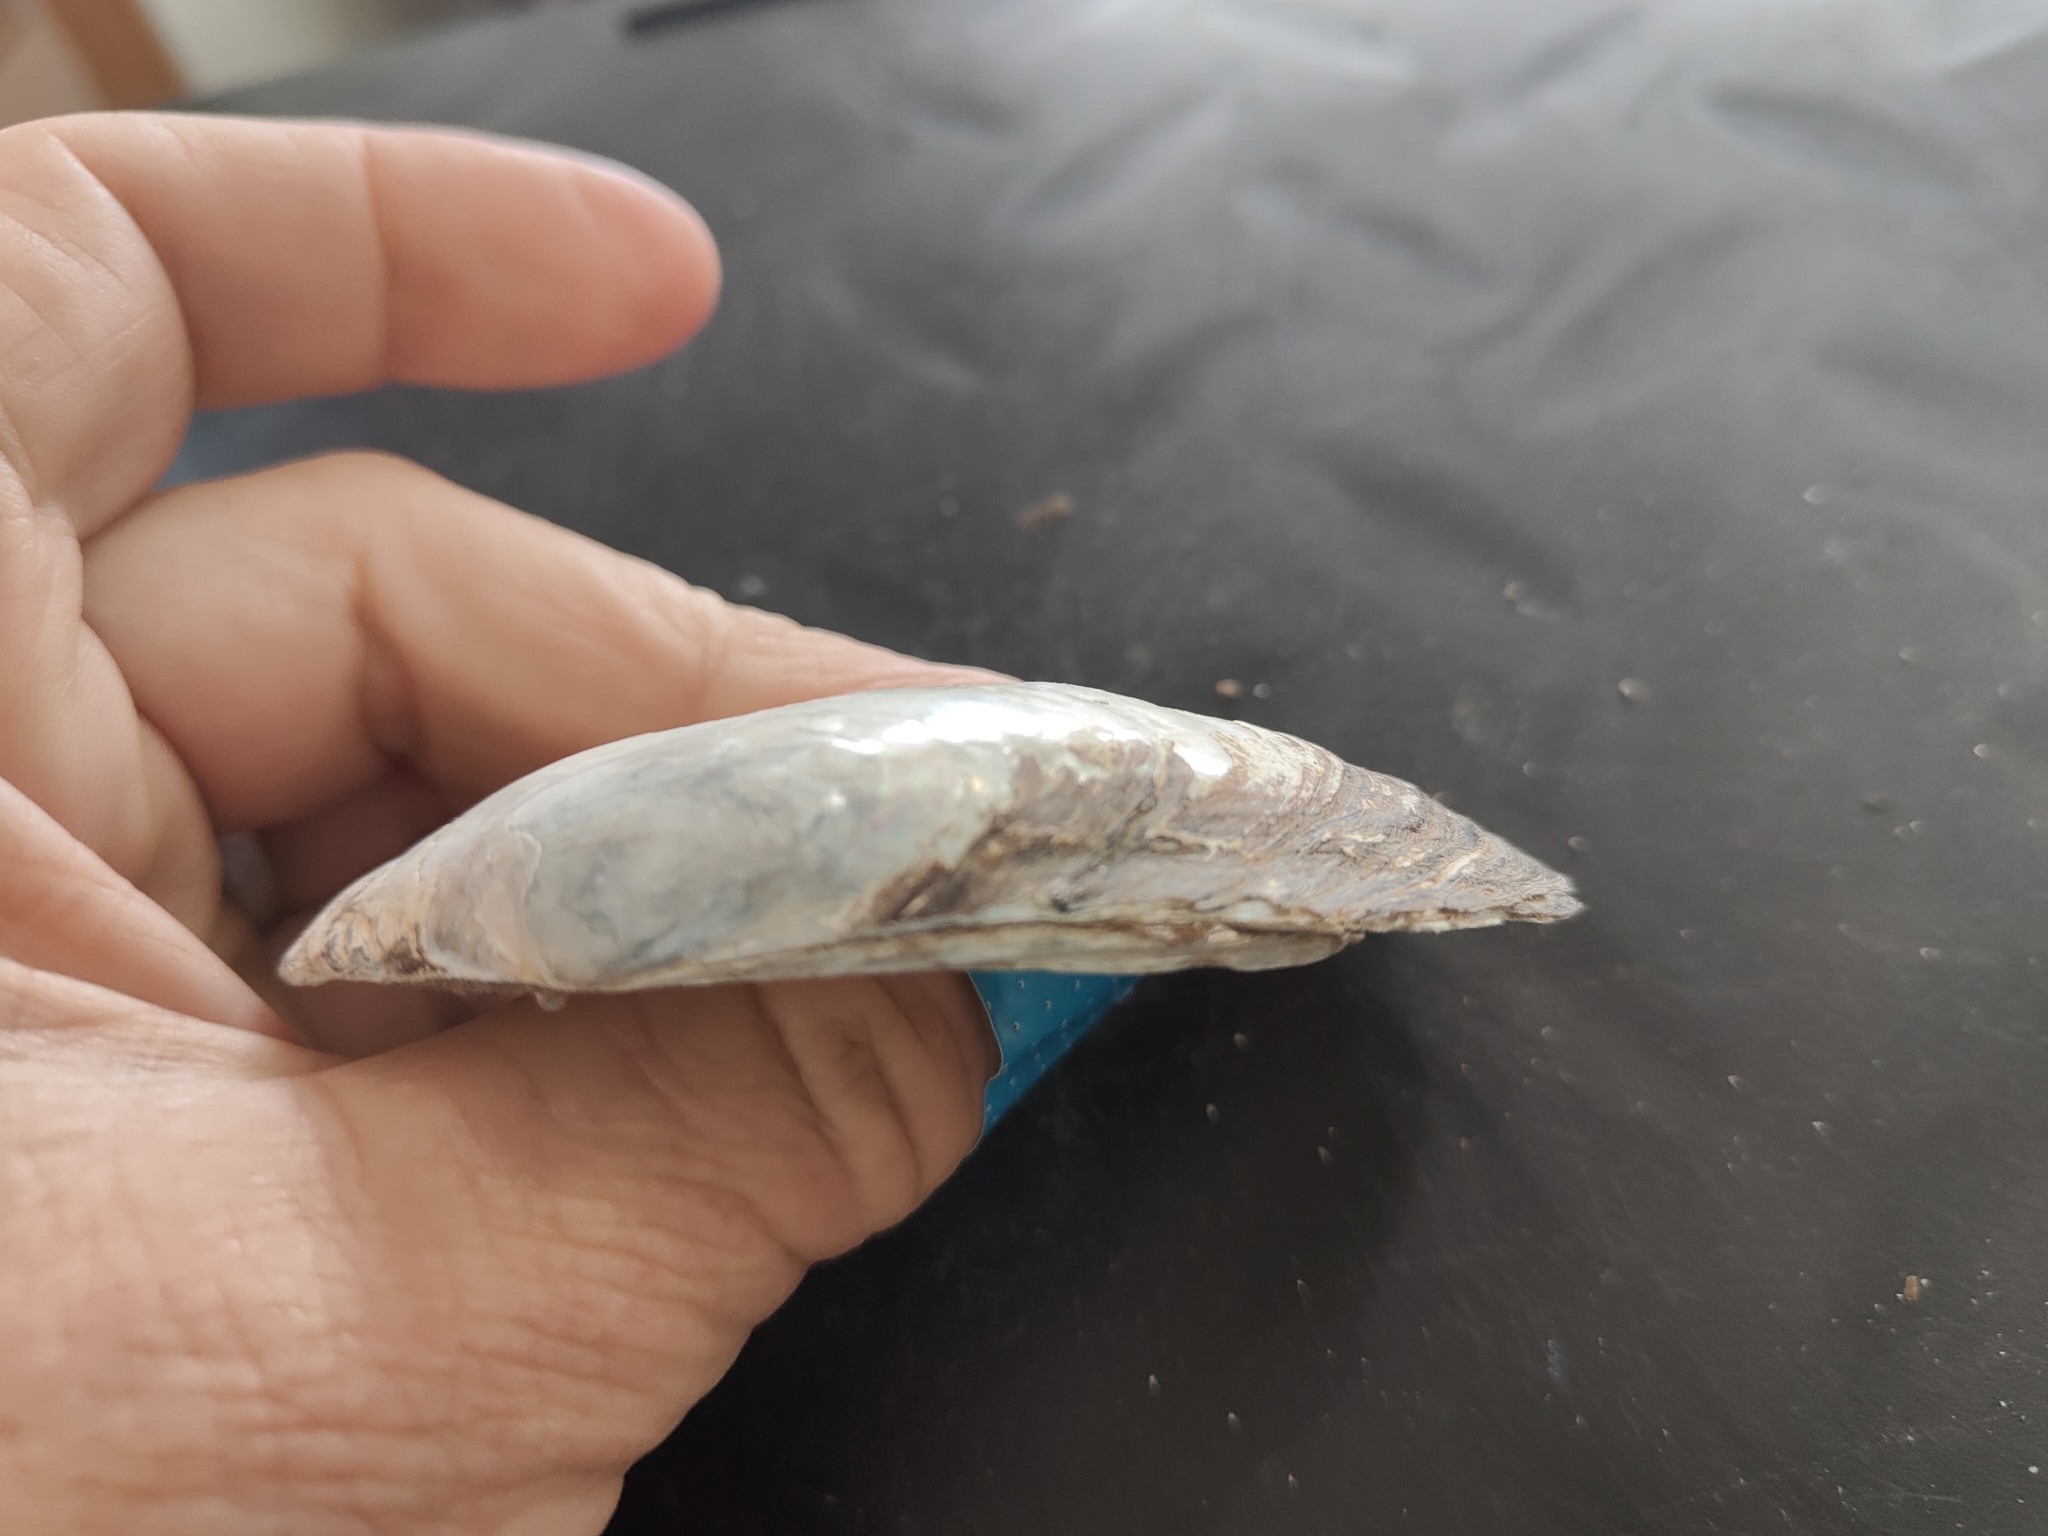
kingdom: Animalia
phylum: Mollusca
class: Bivalvia
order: Unionida
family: Unionidae
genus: Lampsilis
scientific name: Lampsilis siliquoidea
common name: Fatmucket
